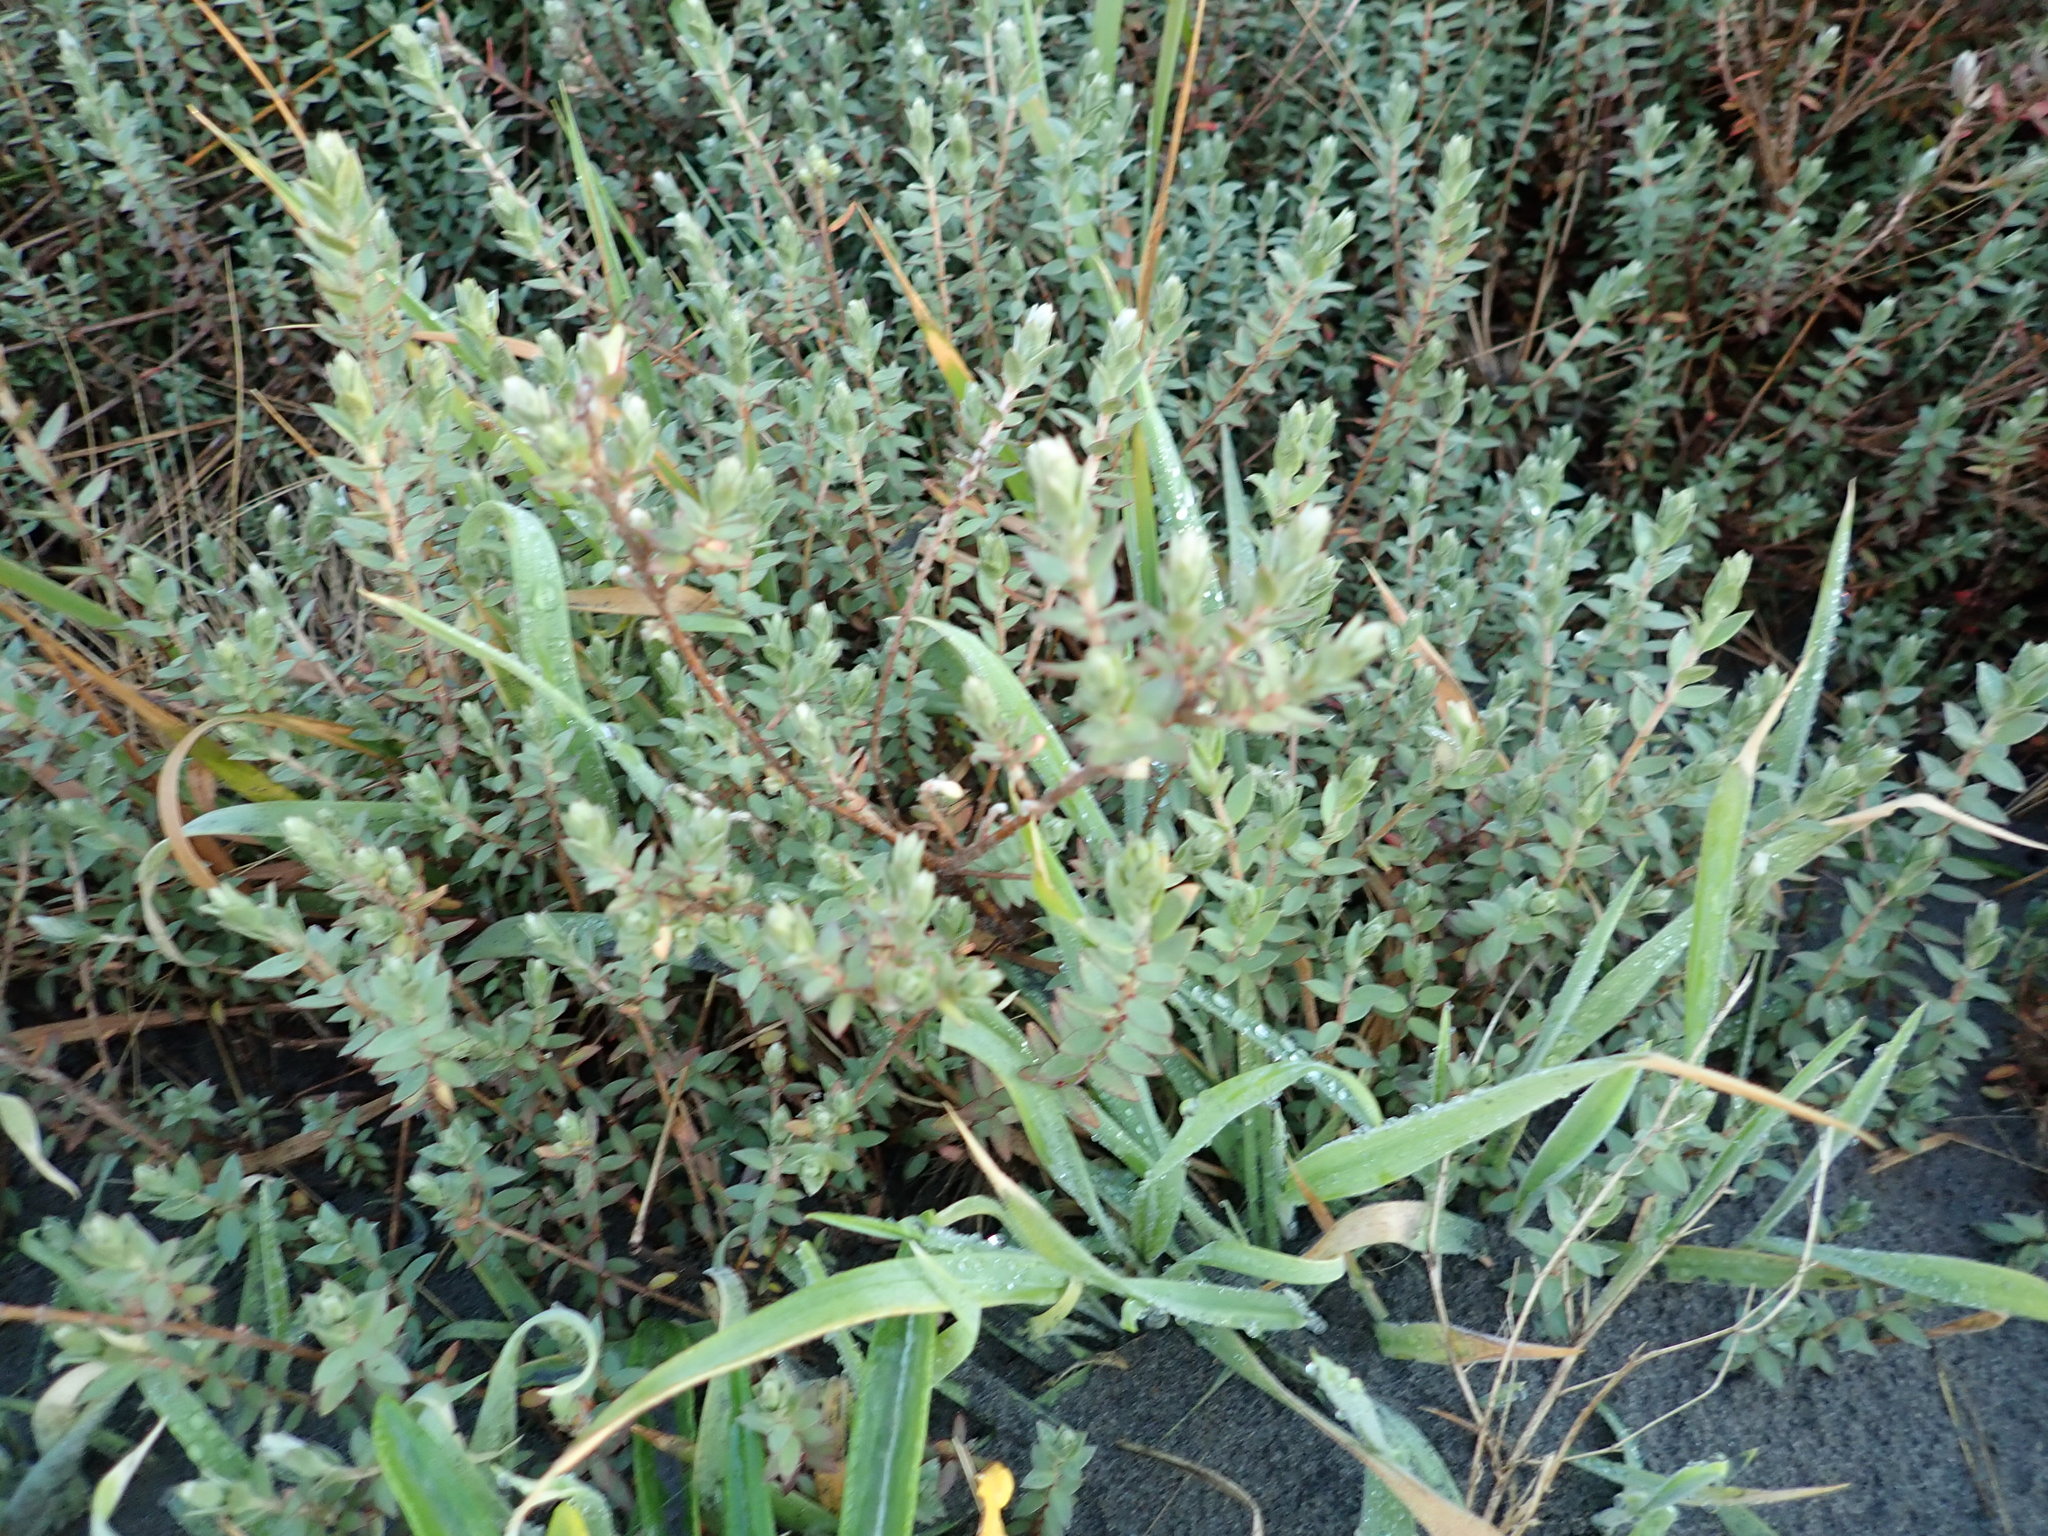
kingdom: Plantae
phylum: Tracheophyta
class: Magnoliopsida
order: Malvales
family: Thymelaeaceae
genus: Pimelea
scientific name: Pimelea villosa
